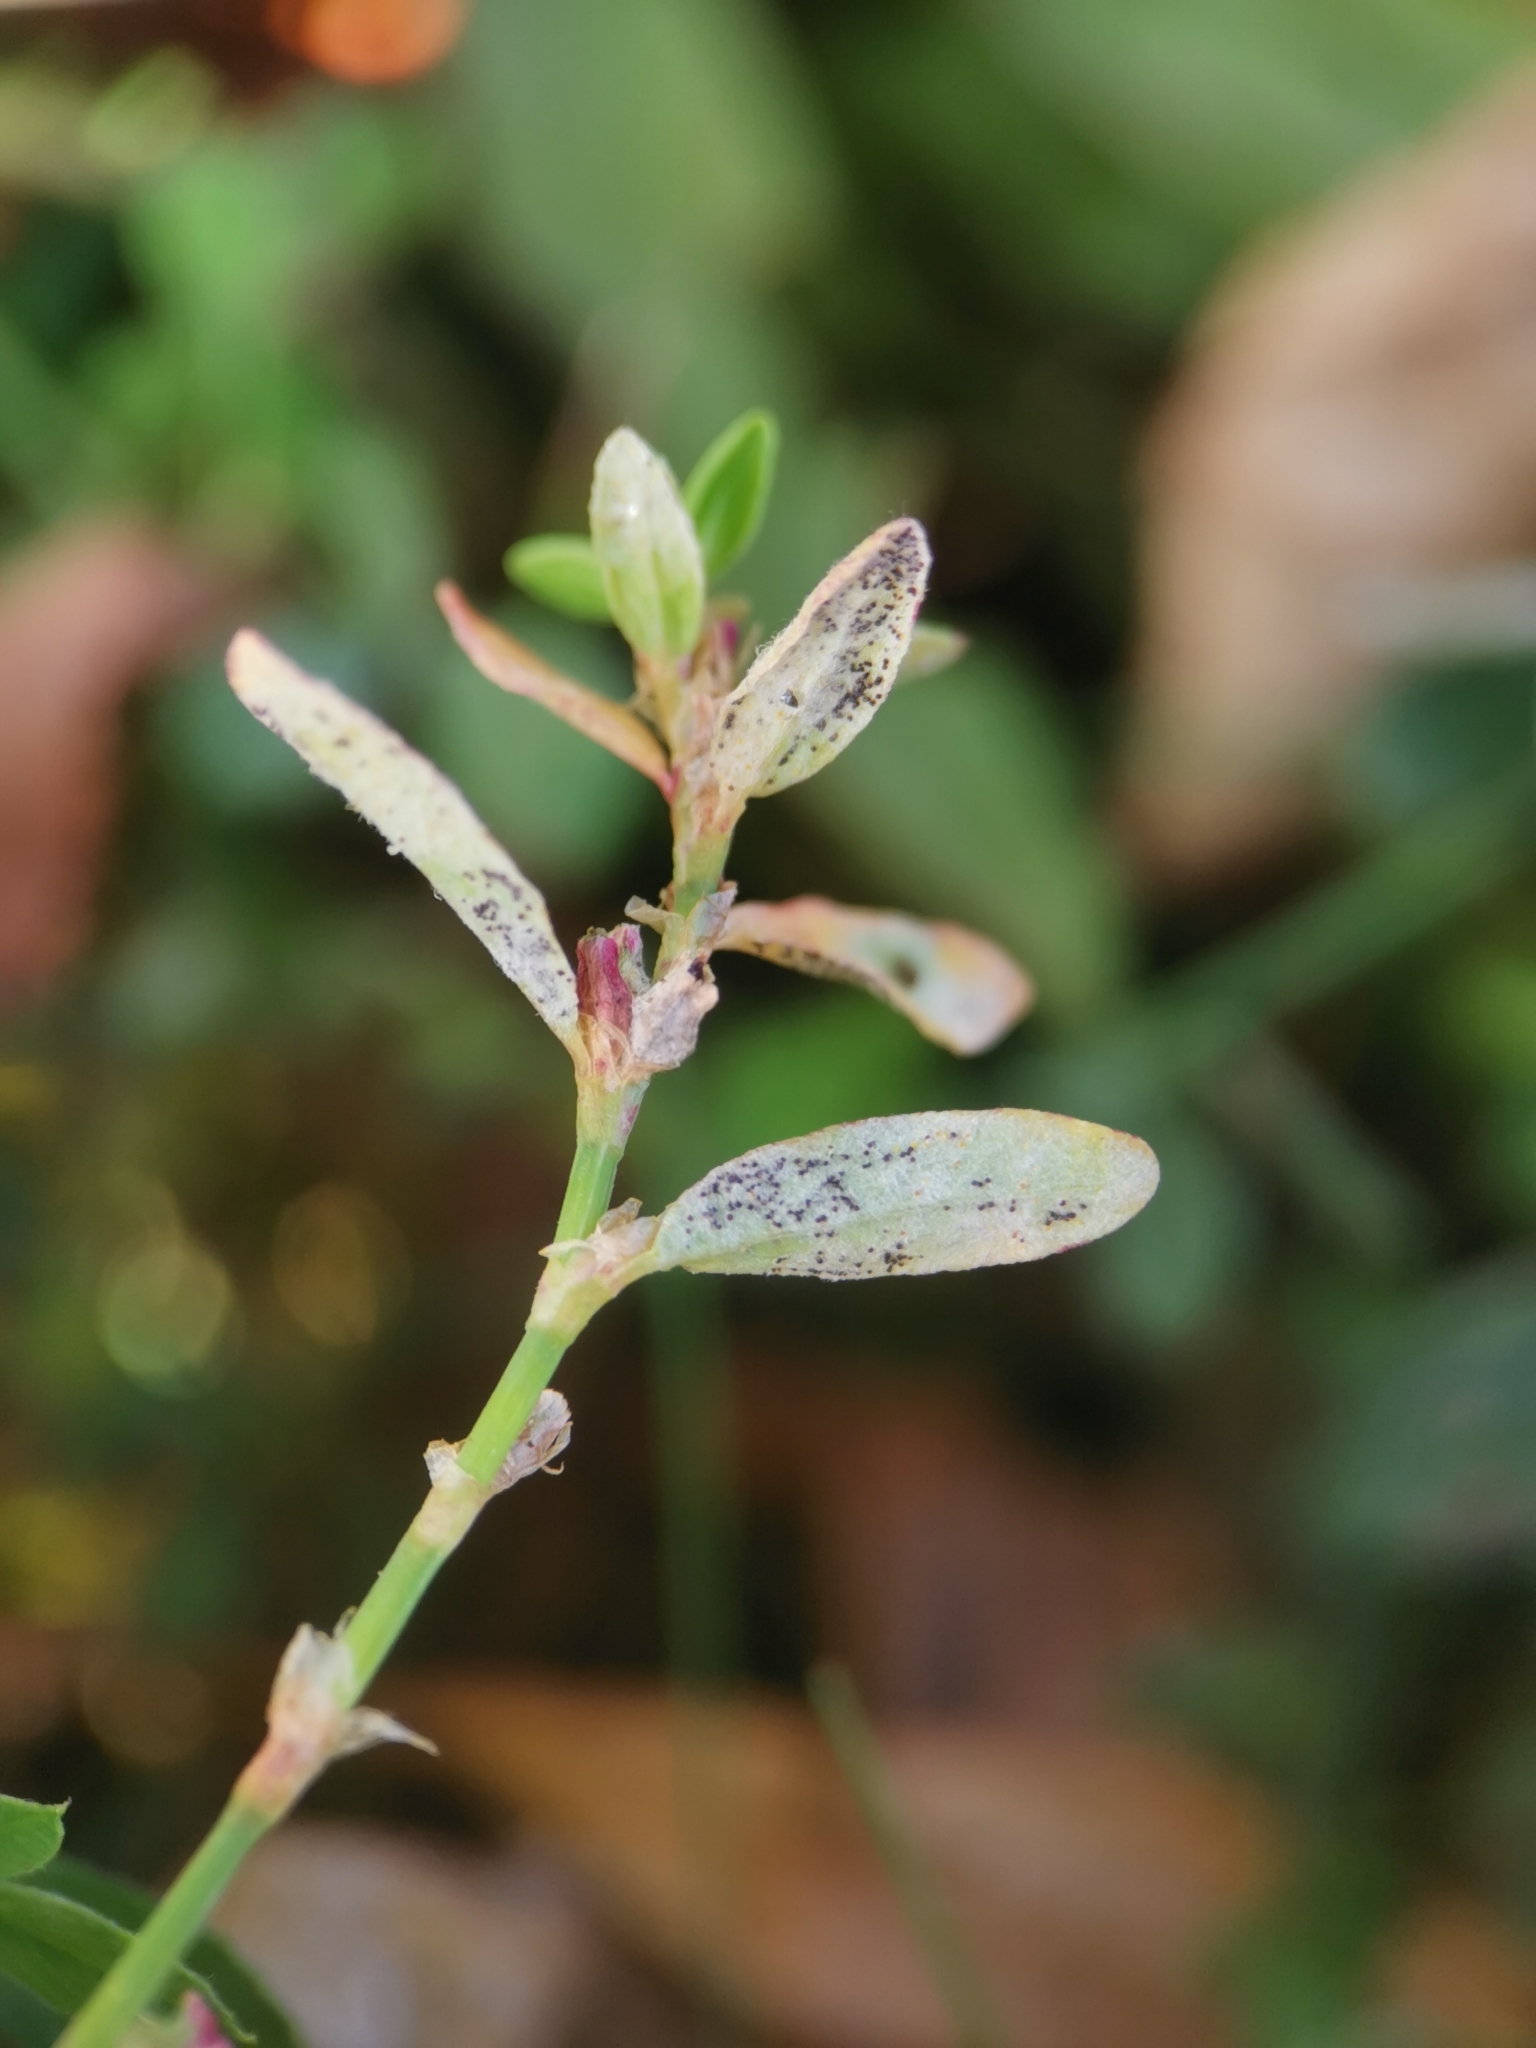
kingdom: Fungi
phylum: Ascomycota
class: Leotiomycetes
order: Helotiales
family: Erysiphaceae
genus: Erysiphe
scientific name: Erysiphe polygoni
